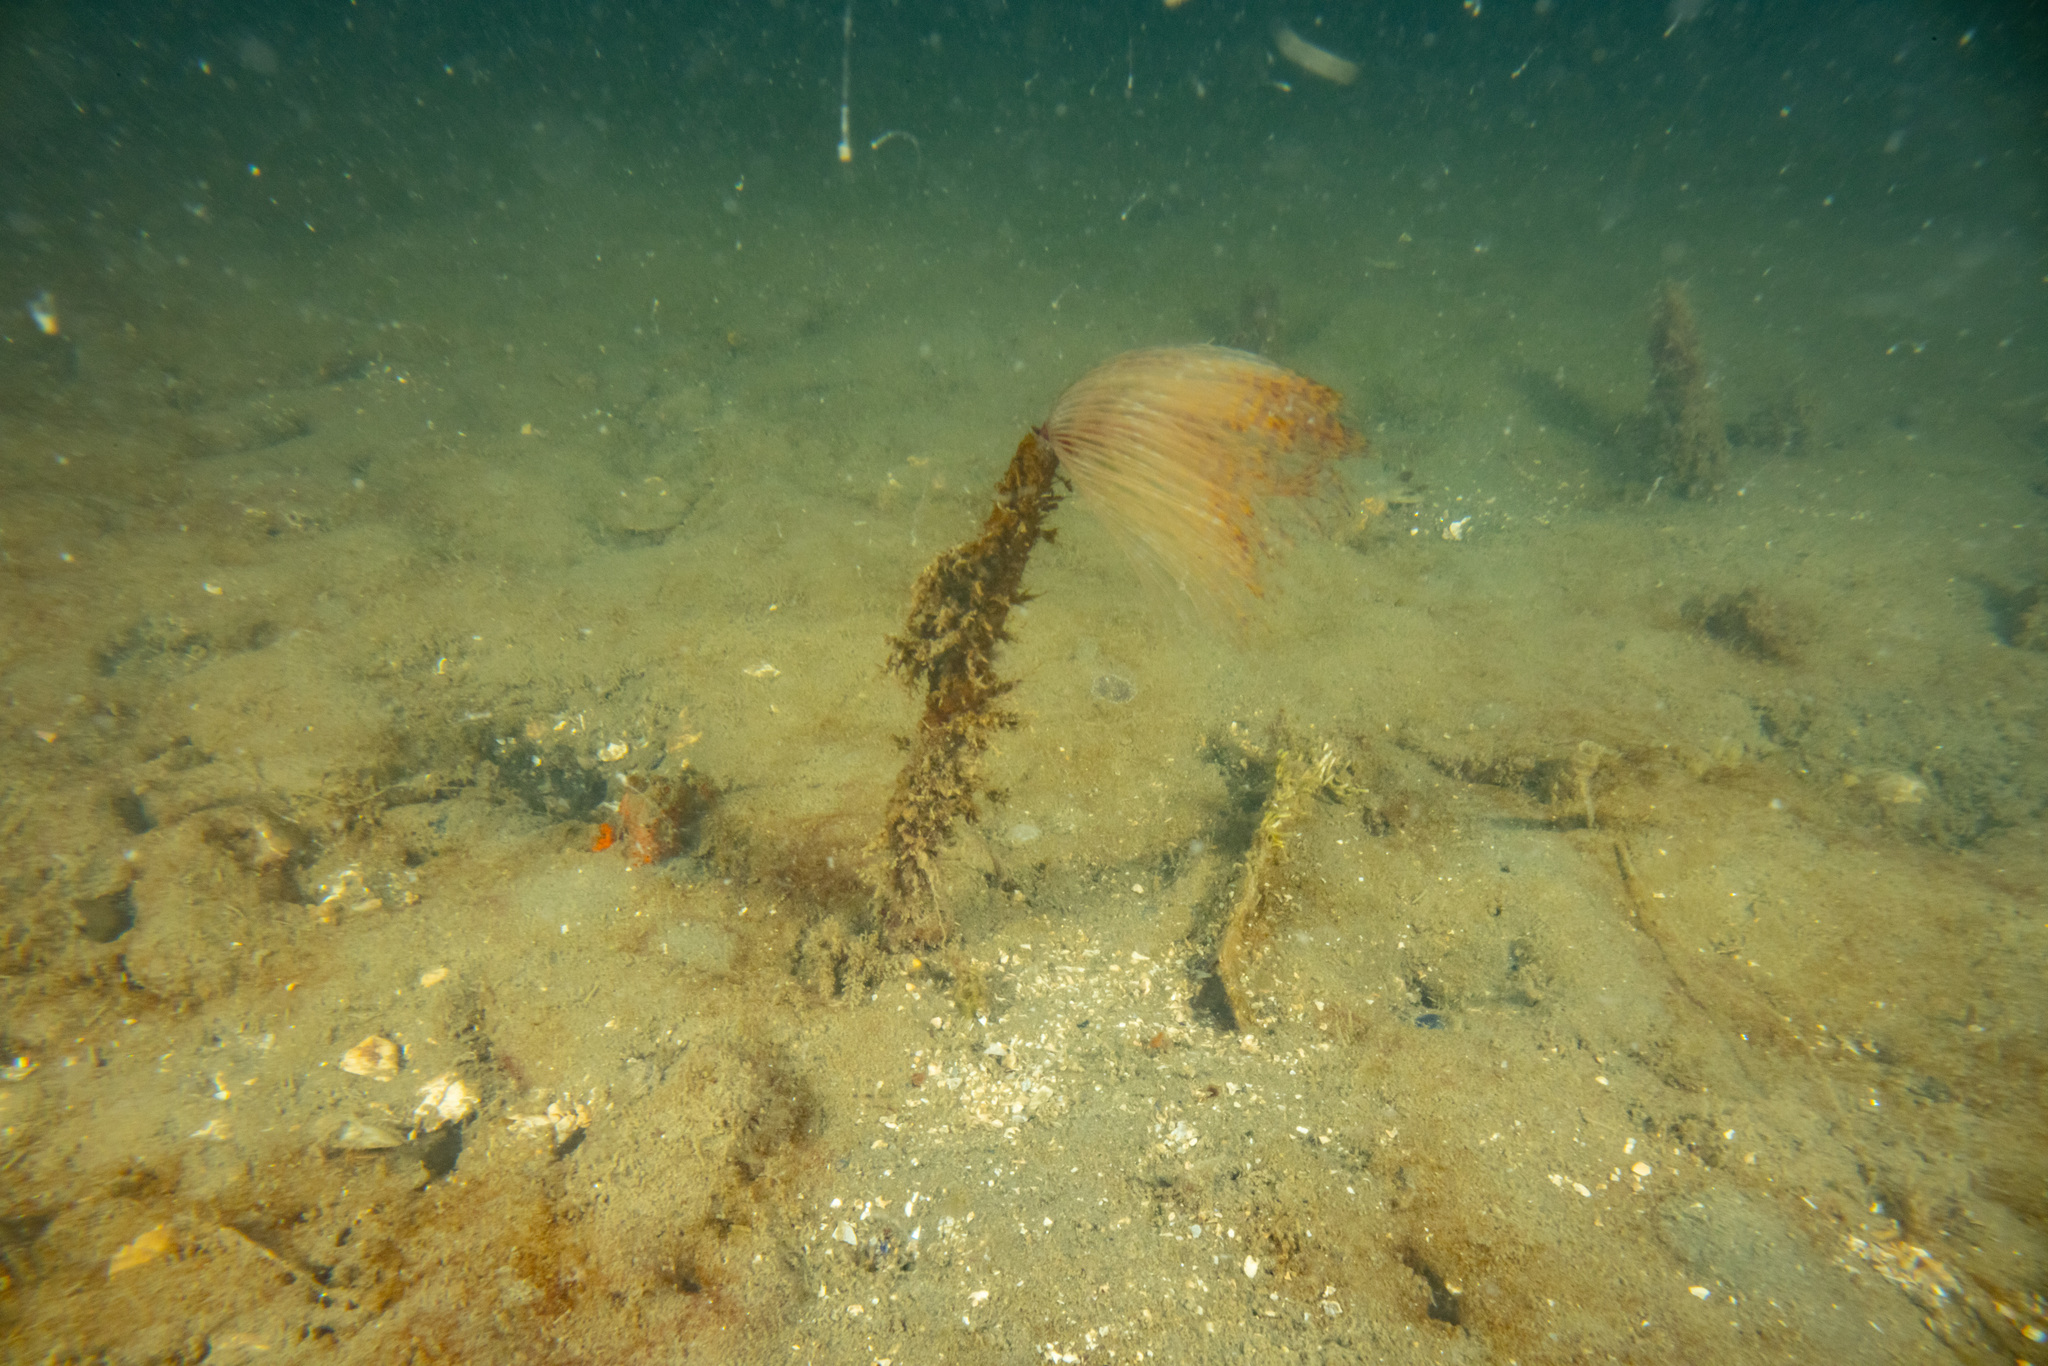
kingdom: Animalia
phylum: Annelida
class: Polychaeta
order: Sabellida
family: Sabellidae
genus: Sabella
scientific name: Sabella spallanzanii
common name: Feather duster worm
